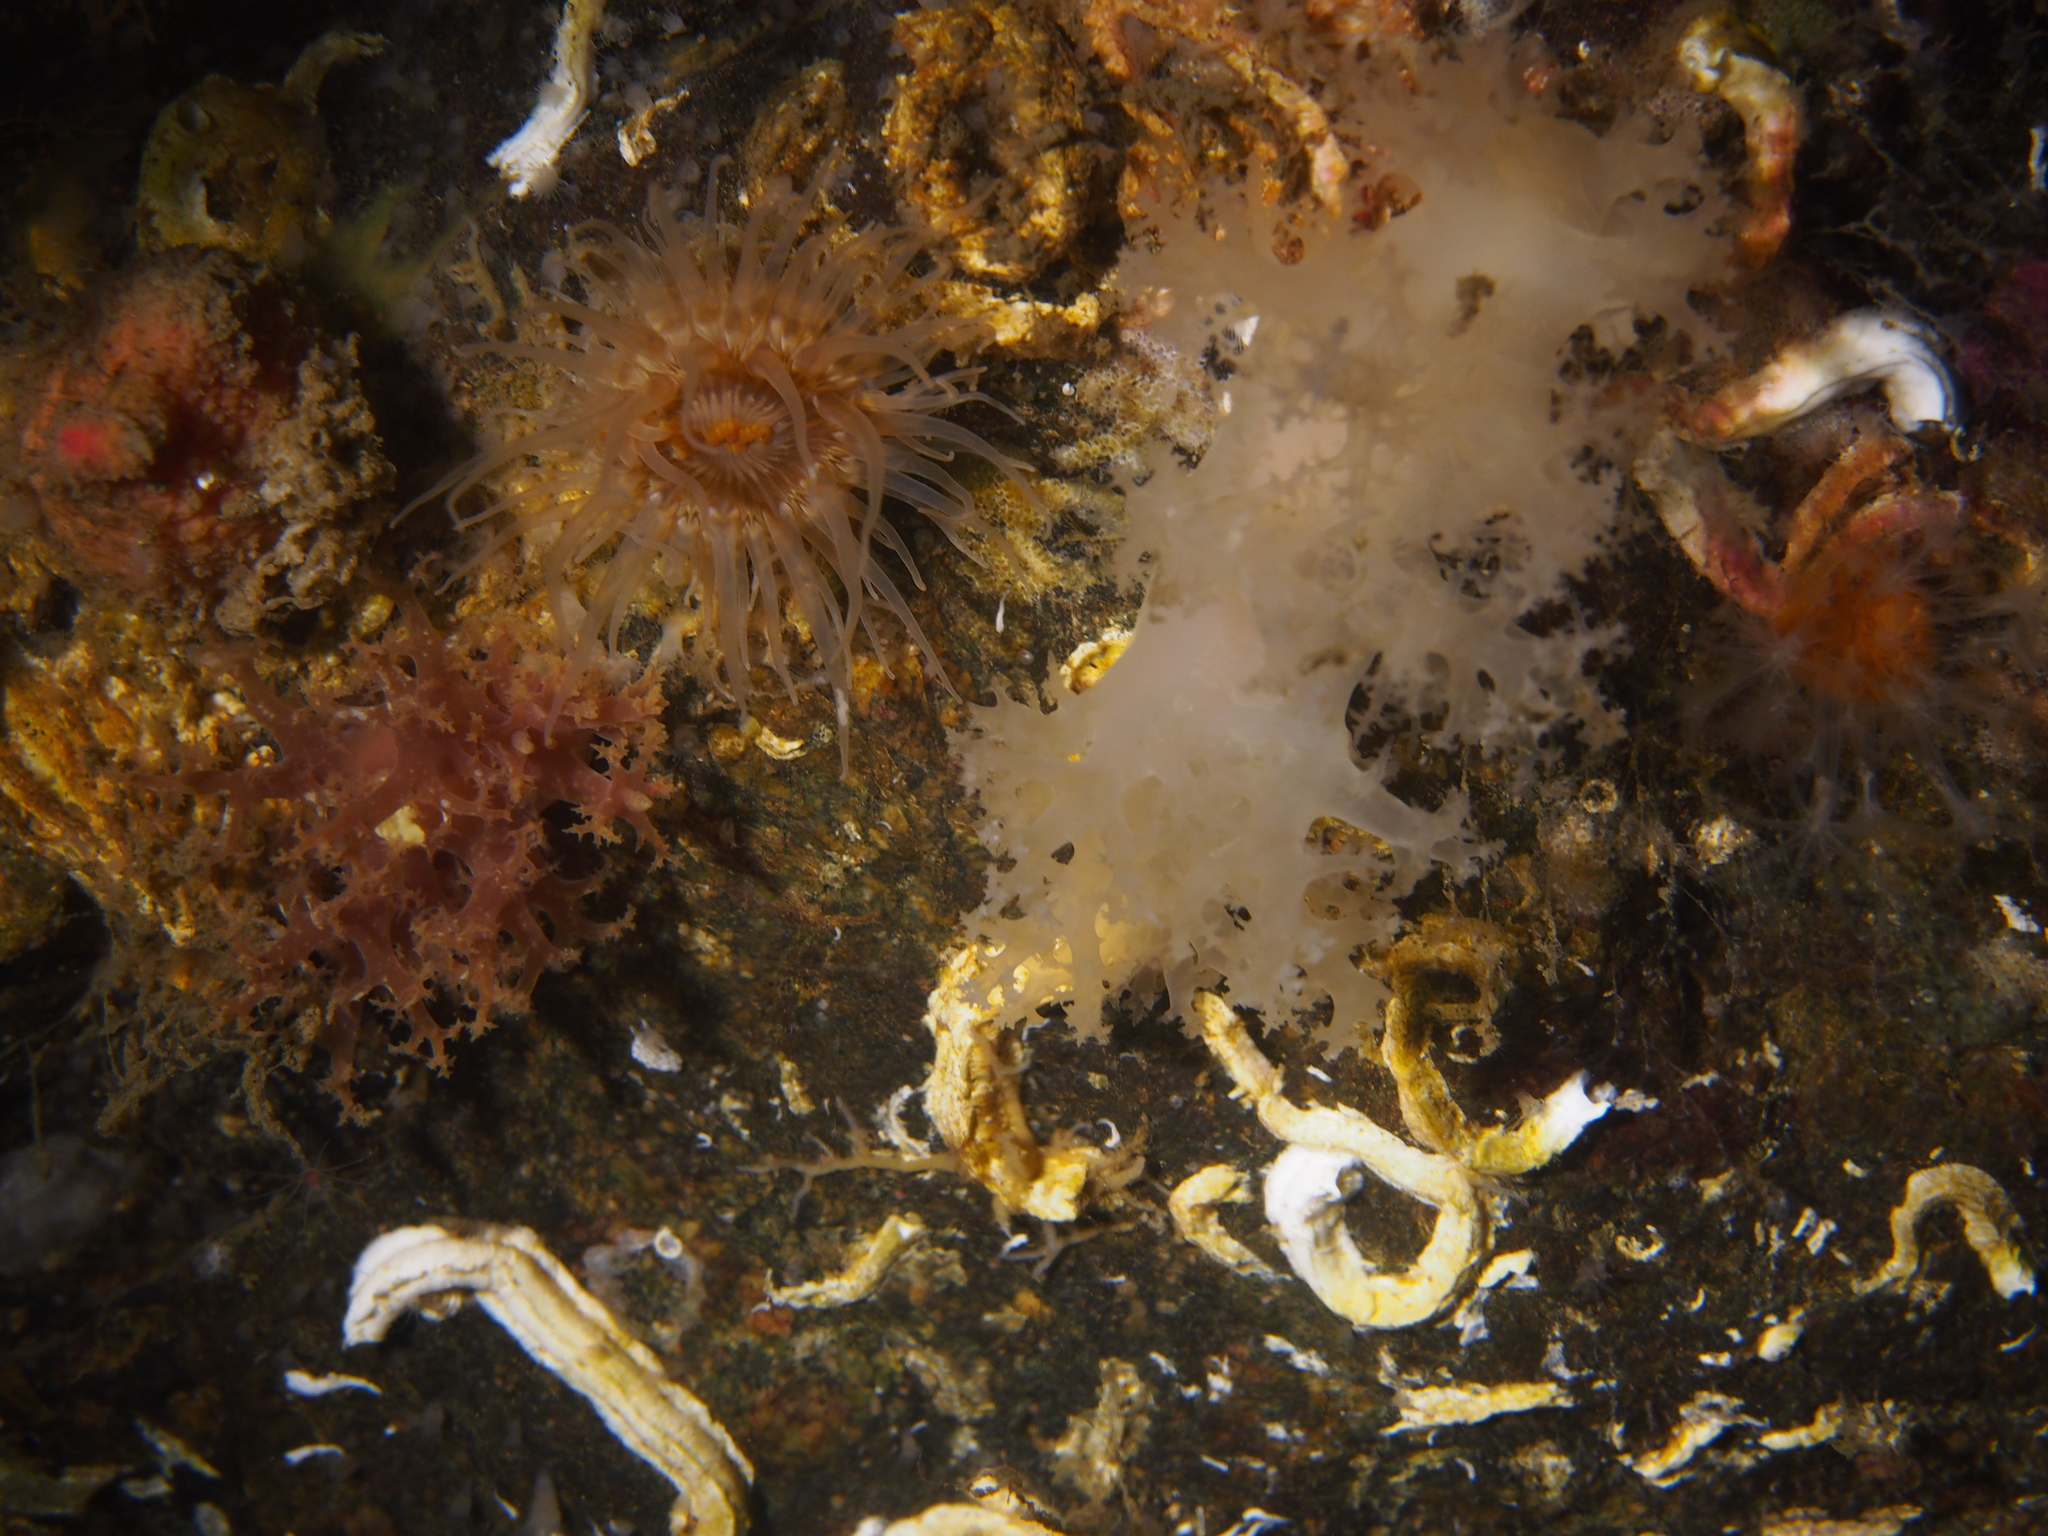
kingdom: Animalia
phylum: Mollusca
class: Gastropoda
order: Nudibranchia
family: Dendronotidae
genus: Dendronotus
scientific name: Dendronotus lacteus
